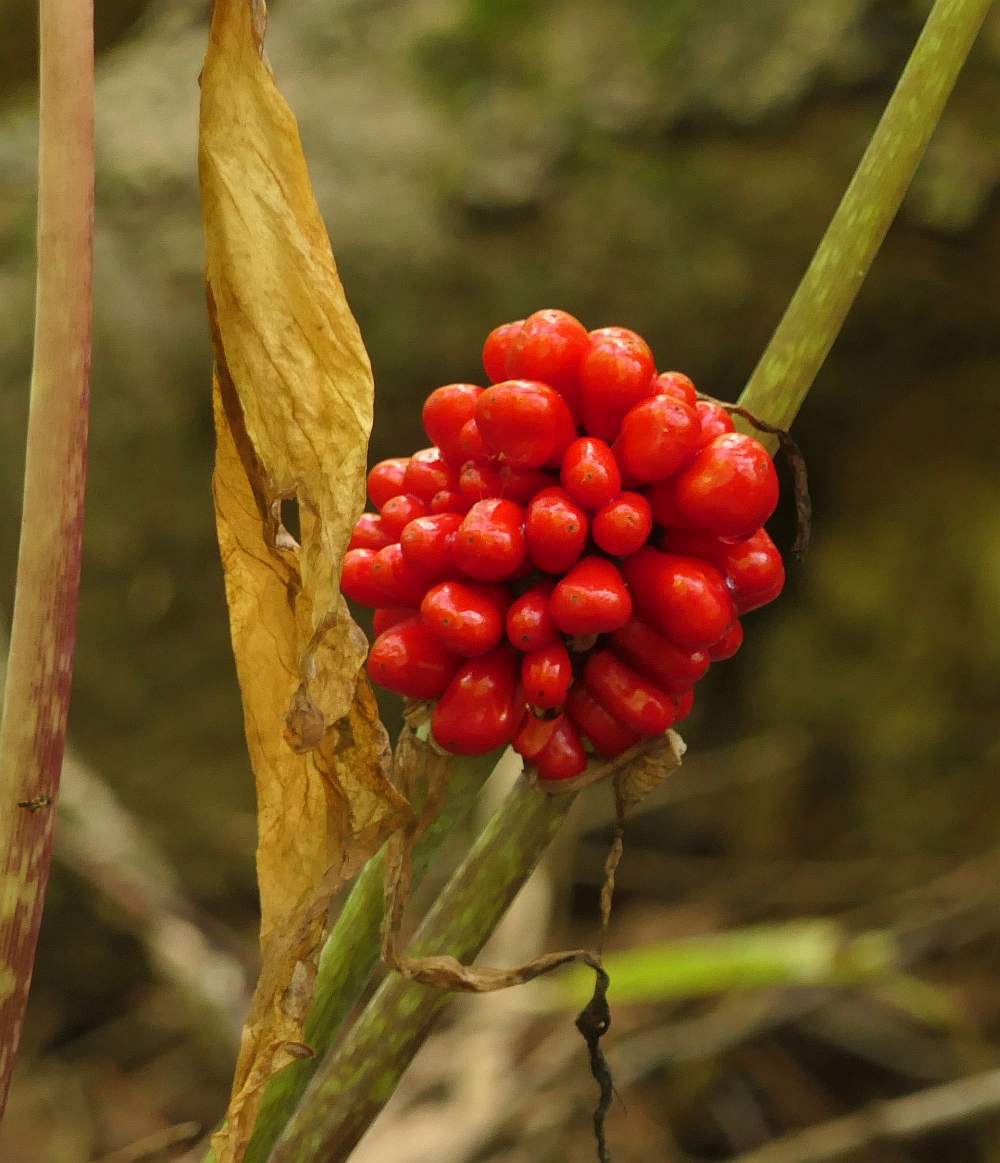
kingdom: Plantae
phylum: Tracheophyta
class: Liliopsida
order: Alismatales
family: Araceae
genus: Arisaema
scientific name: Arisaema triphyllum
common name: Jack-in-the-pulpit
